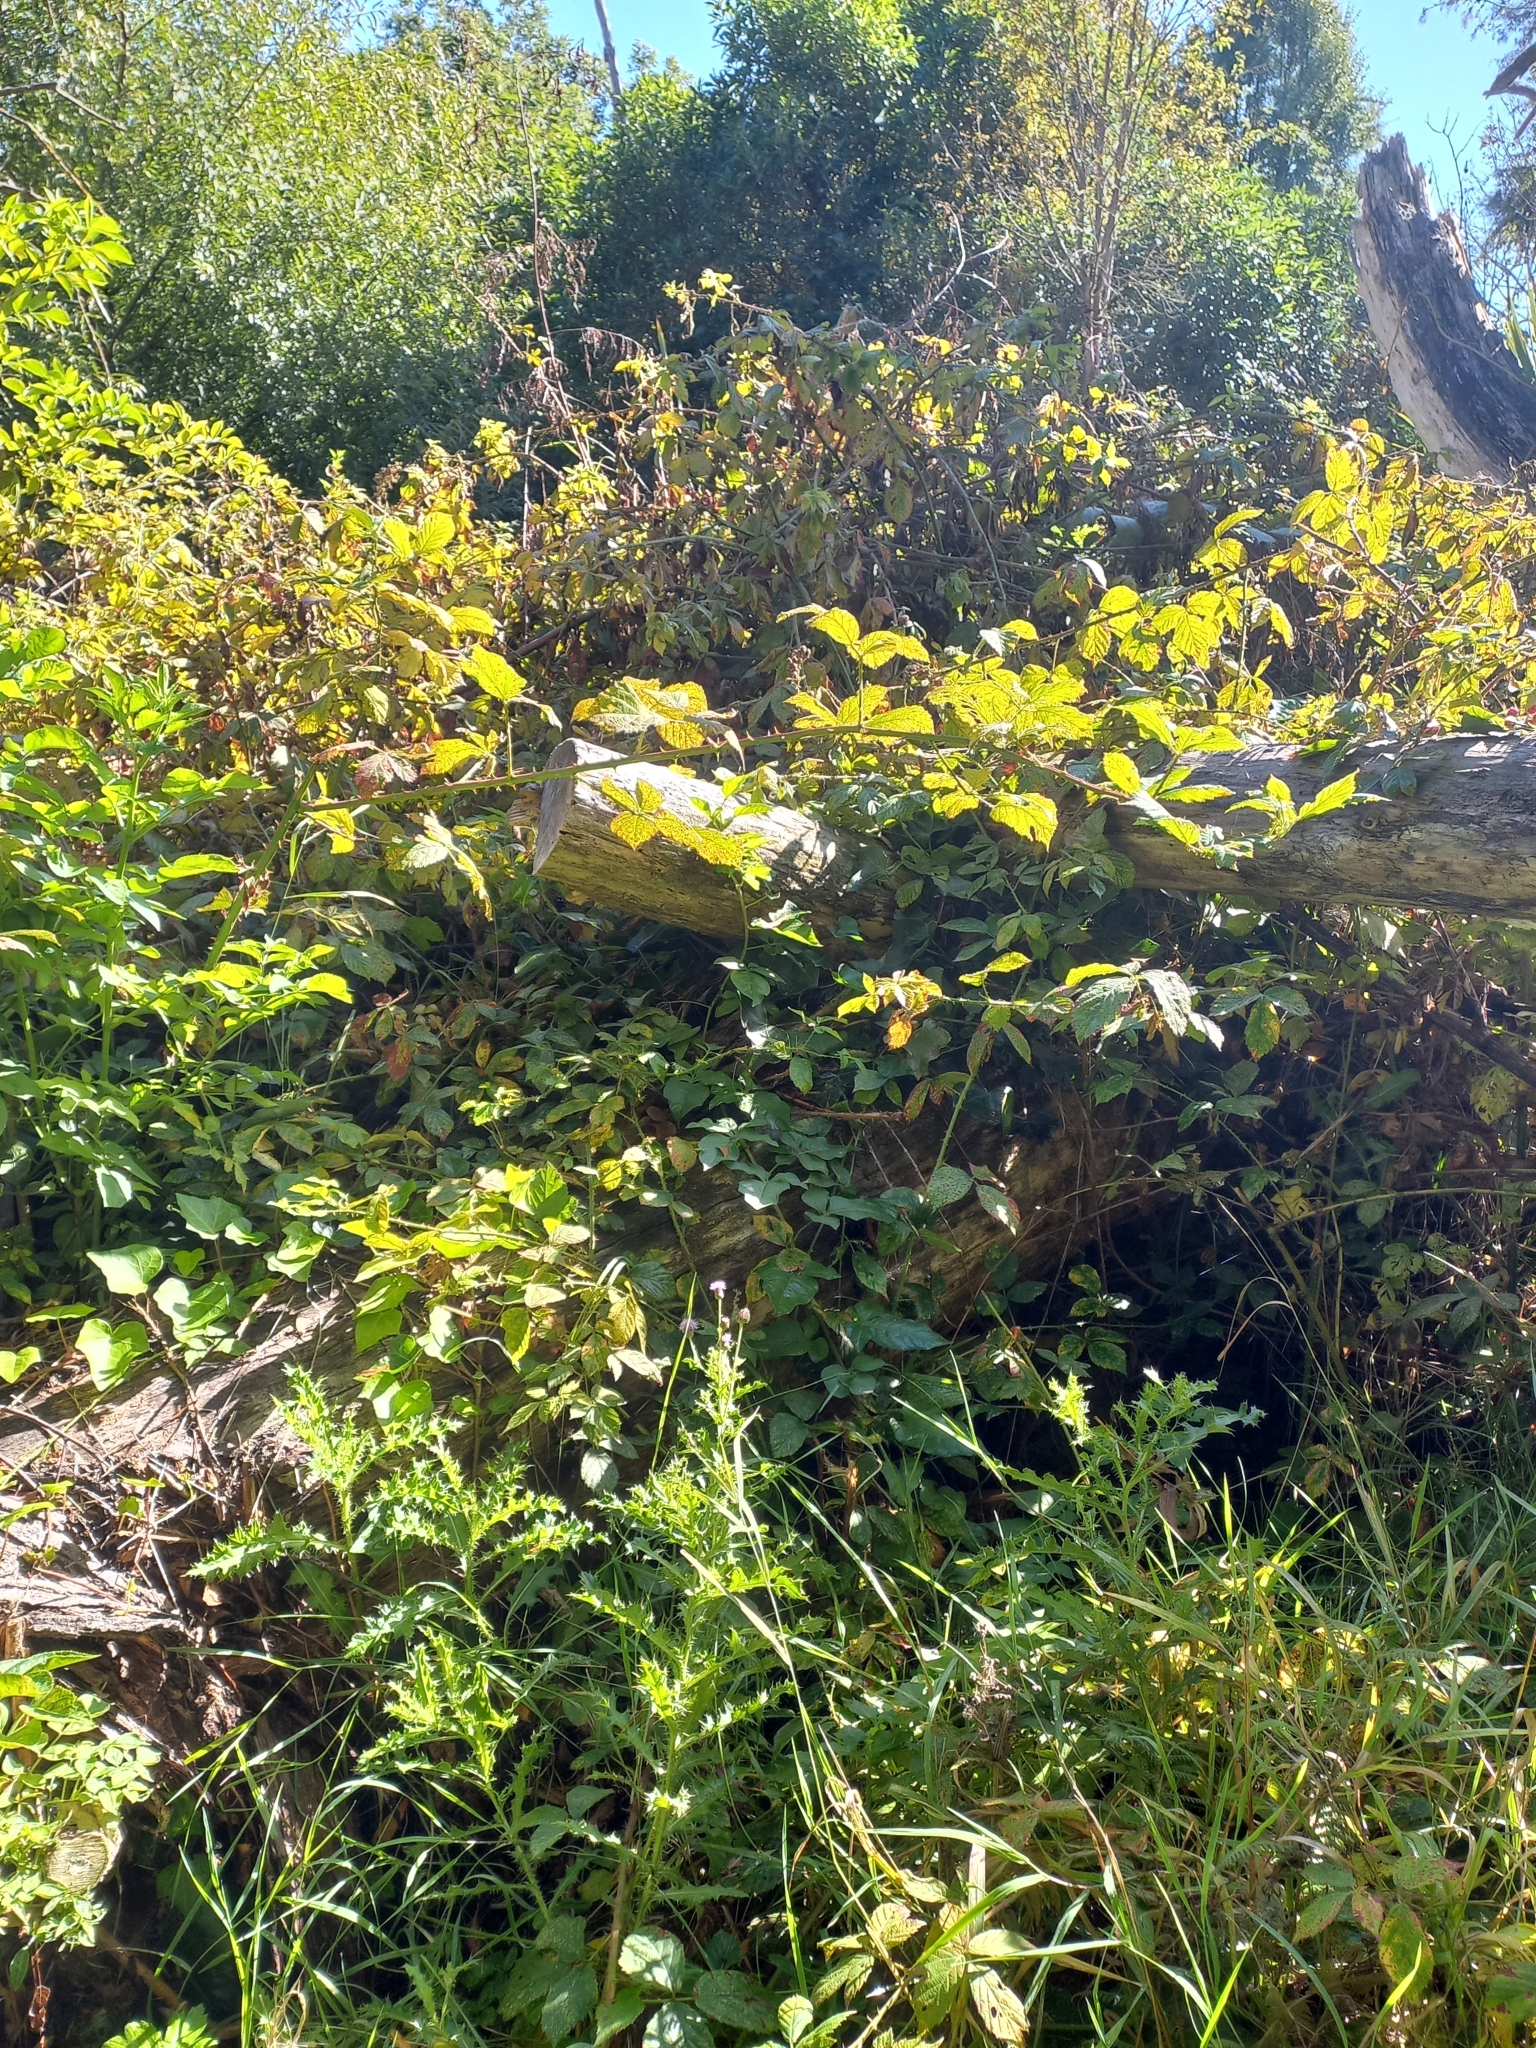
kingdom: Plantae
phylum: Tracheophyta
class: Magnoliopsida
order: Rosales
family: Rosaceae
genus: Rubus
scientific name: Rubus fruticosus
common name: Blackberry, bramble
